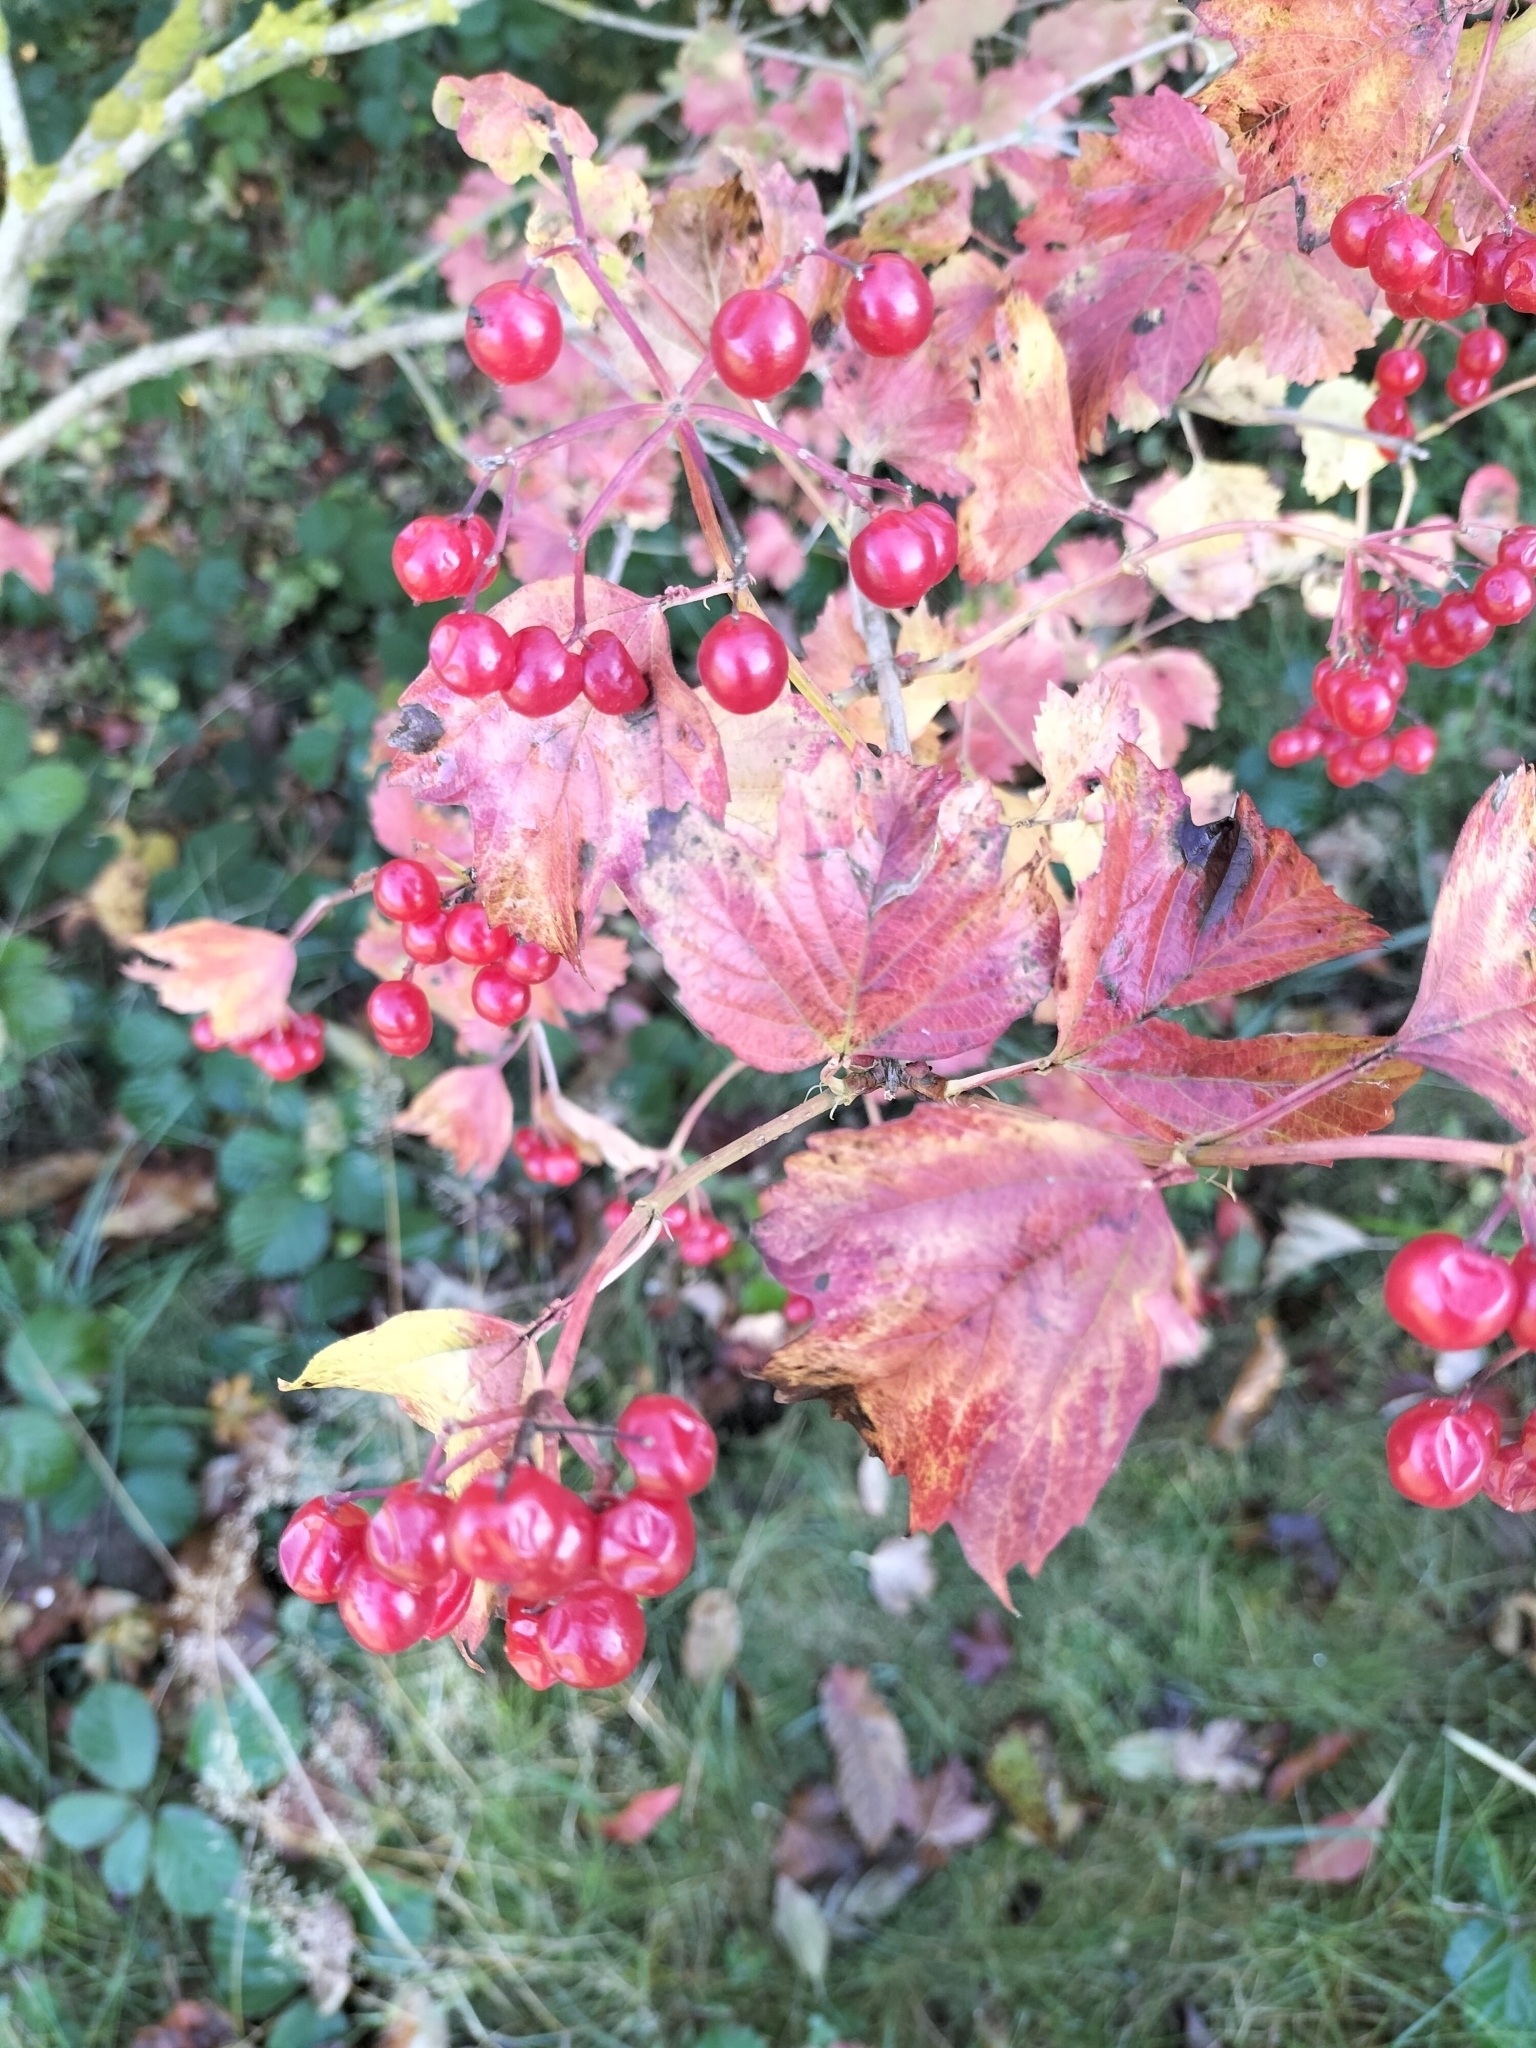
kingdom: Plantae
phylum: Tracheophyta
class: Magnoliopsida
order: Dipsacales
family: Viburnaceae
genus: Viburnum
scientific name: Viburnum opulus
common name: Guelder-rose
